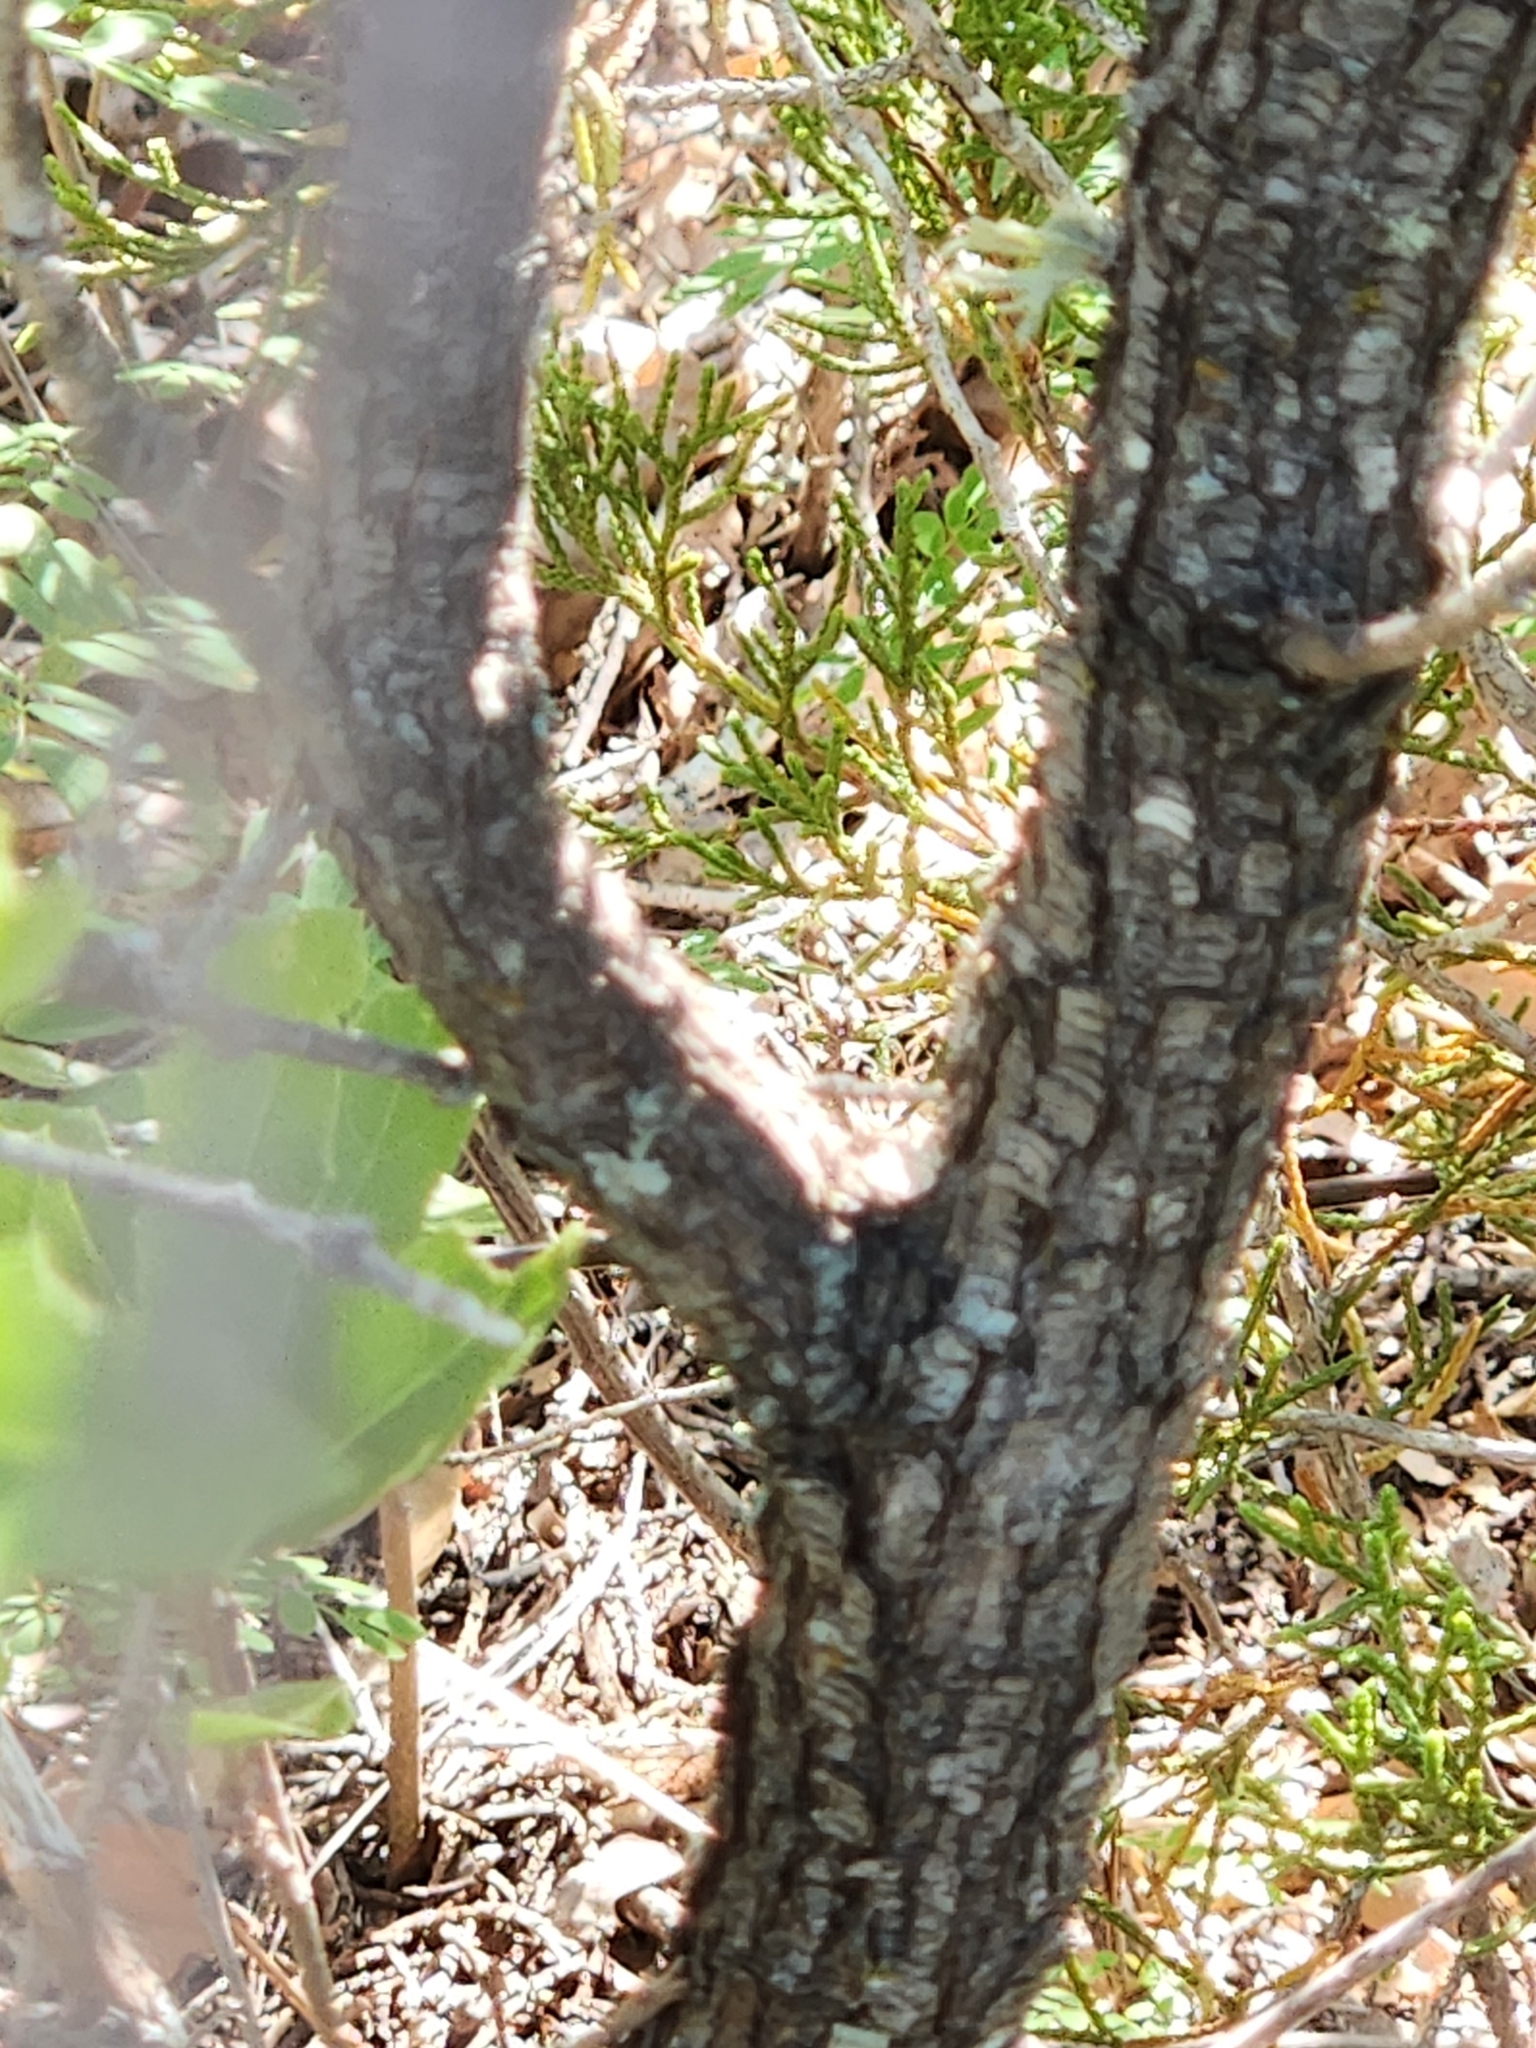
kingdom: Plantae
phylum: Tracheophyta
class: Magnoliopsida
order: Fabales
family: Fabaceae
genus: Senegalia
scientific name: Senegalia roemeriana
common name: Roemer's acacia
